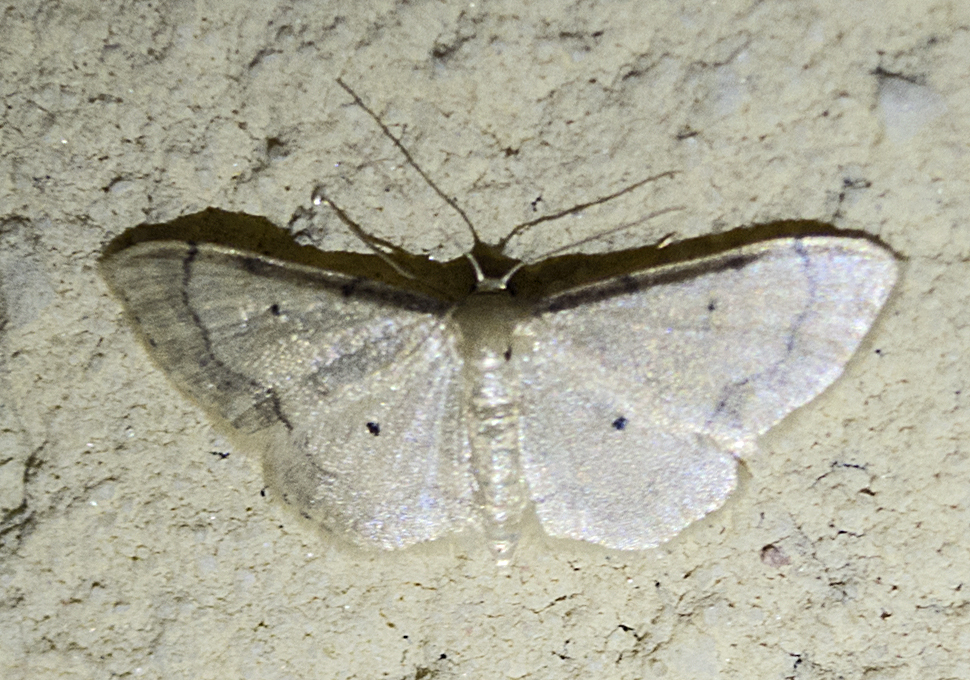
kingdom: Animalia
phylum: Arthropoda
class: Insecta
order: Lepidoptera
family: Geometridae
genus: Idaea
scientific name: Idaea politaria
